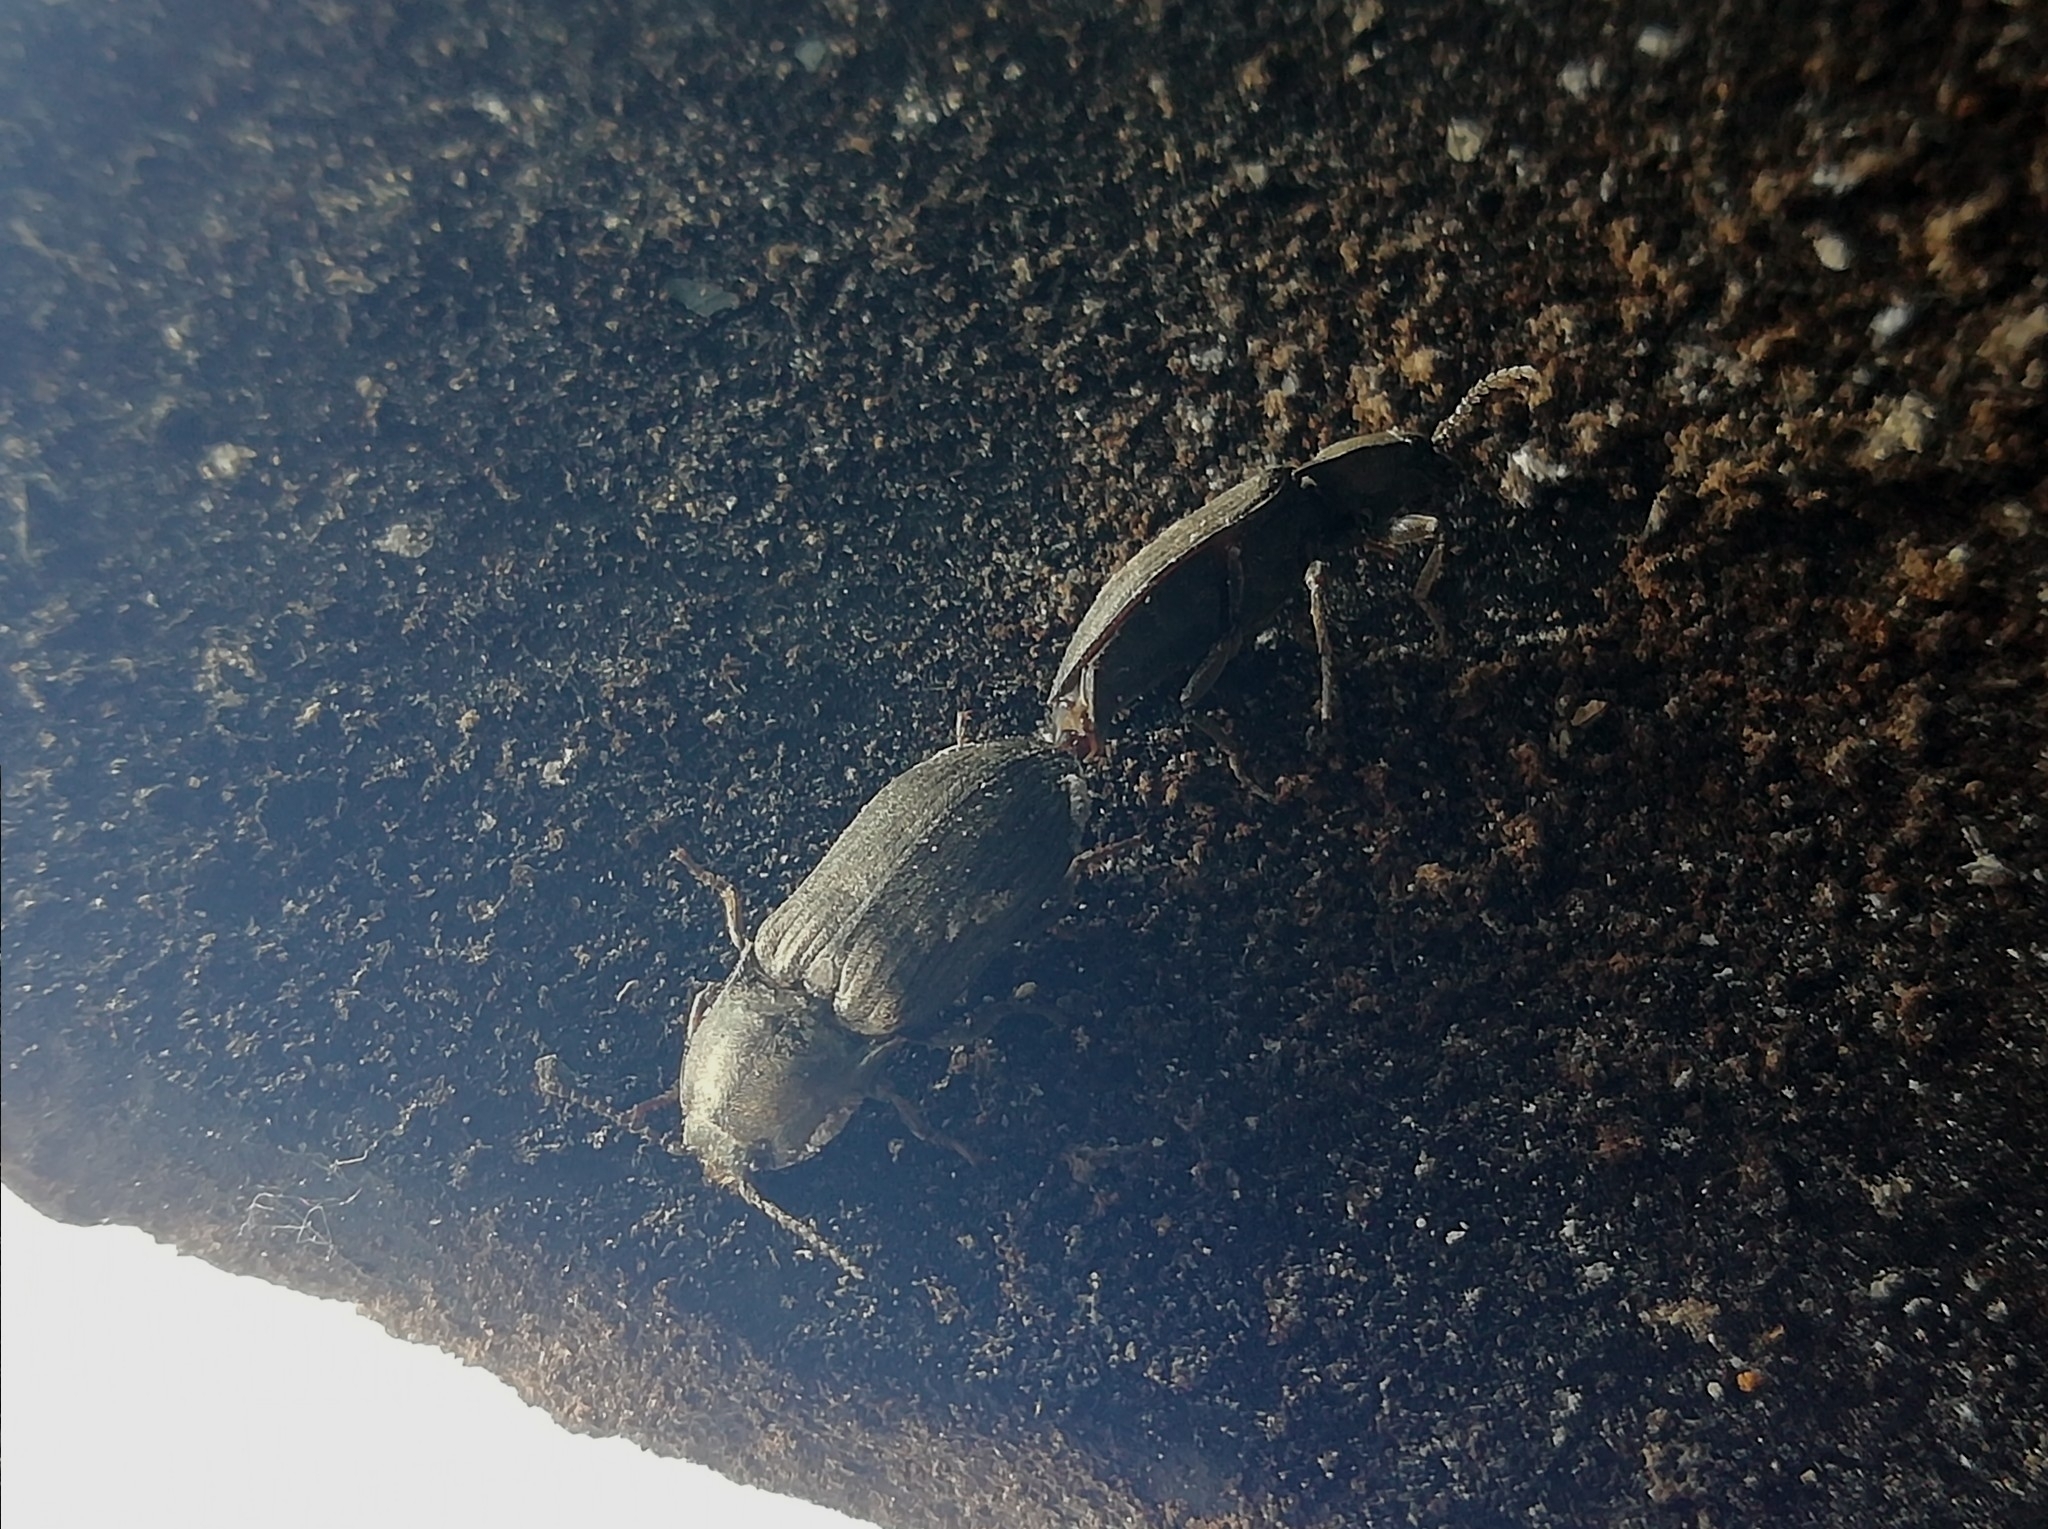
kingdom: Animalia
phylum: Arthropoda
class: Insecta
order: Coleoptera
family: Elateridae
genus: Selatosomus
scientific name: Selatosomus latus
